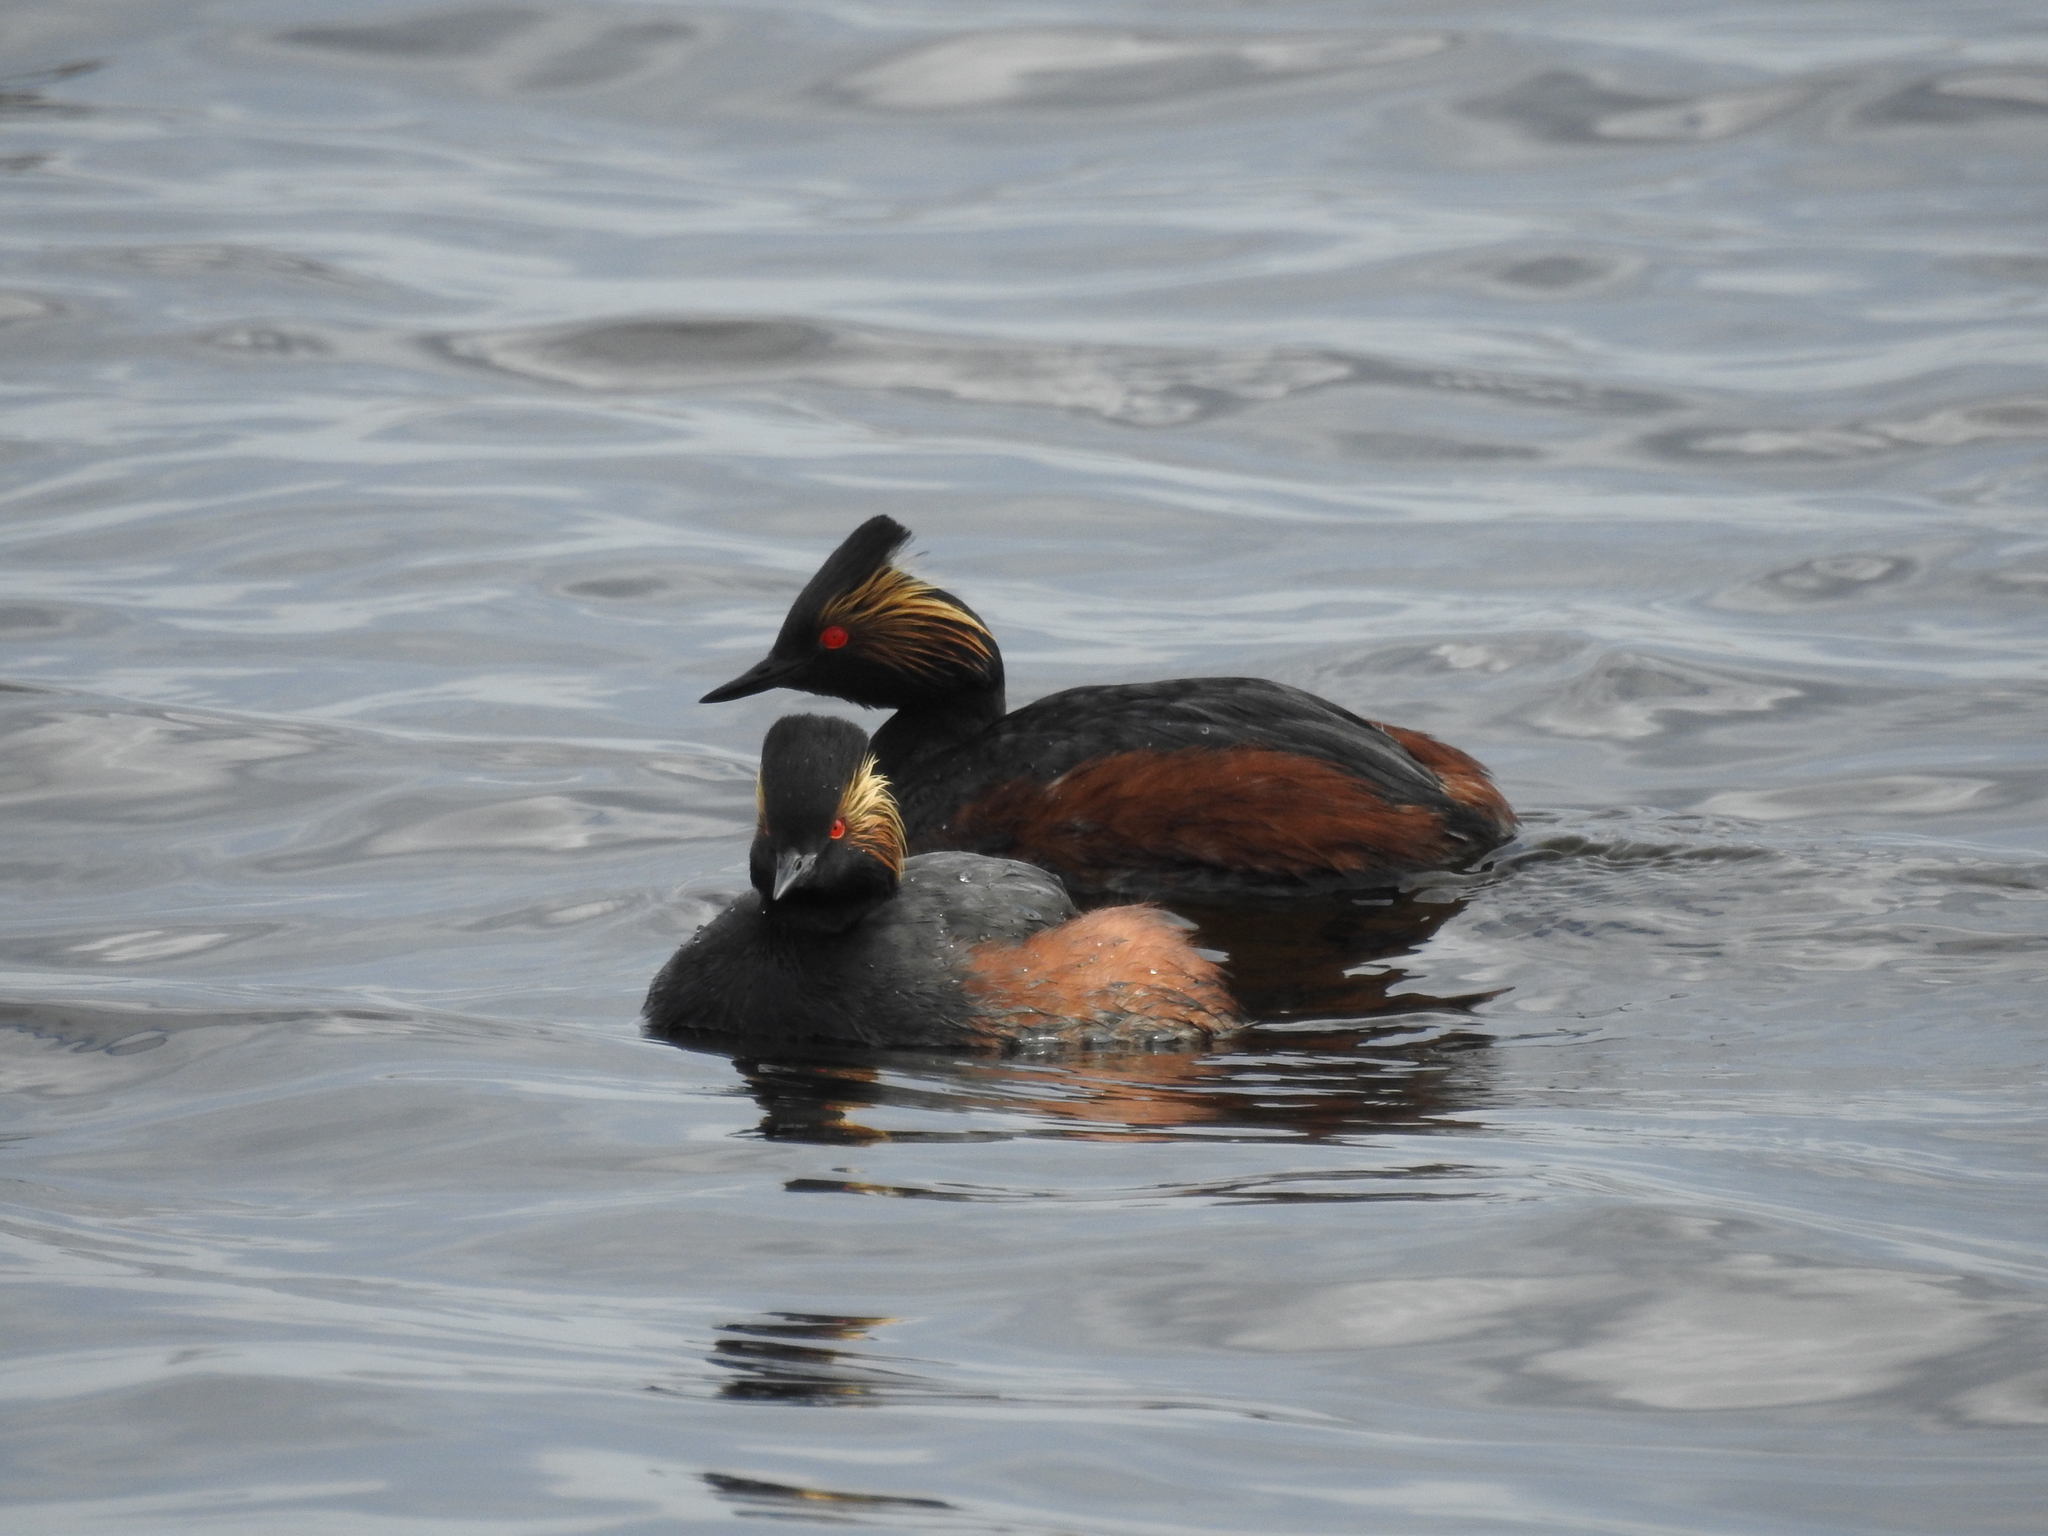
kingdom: Animalia
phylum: Chordata
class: Aves
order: Podicipediformes
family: Podicipedidae
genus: Podiceps
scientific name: Podiceps nigricollis
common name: Black-necked grebe
